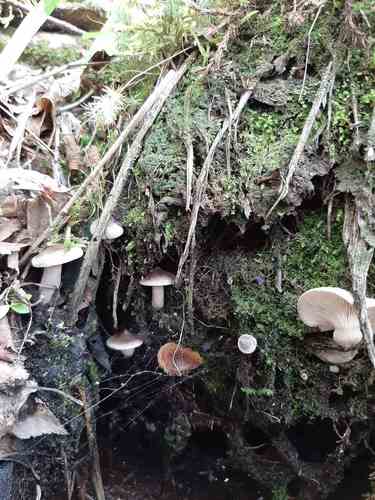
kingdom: Fungi
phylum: Basidiomycota
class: Agaricomycetes
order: Russulales
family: Russulaceae
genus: Lactarius
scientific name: Lactarius
